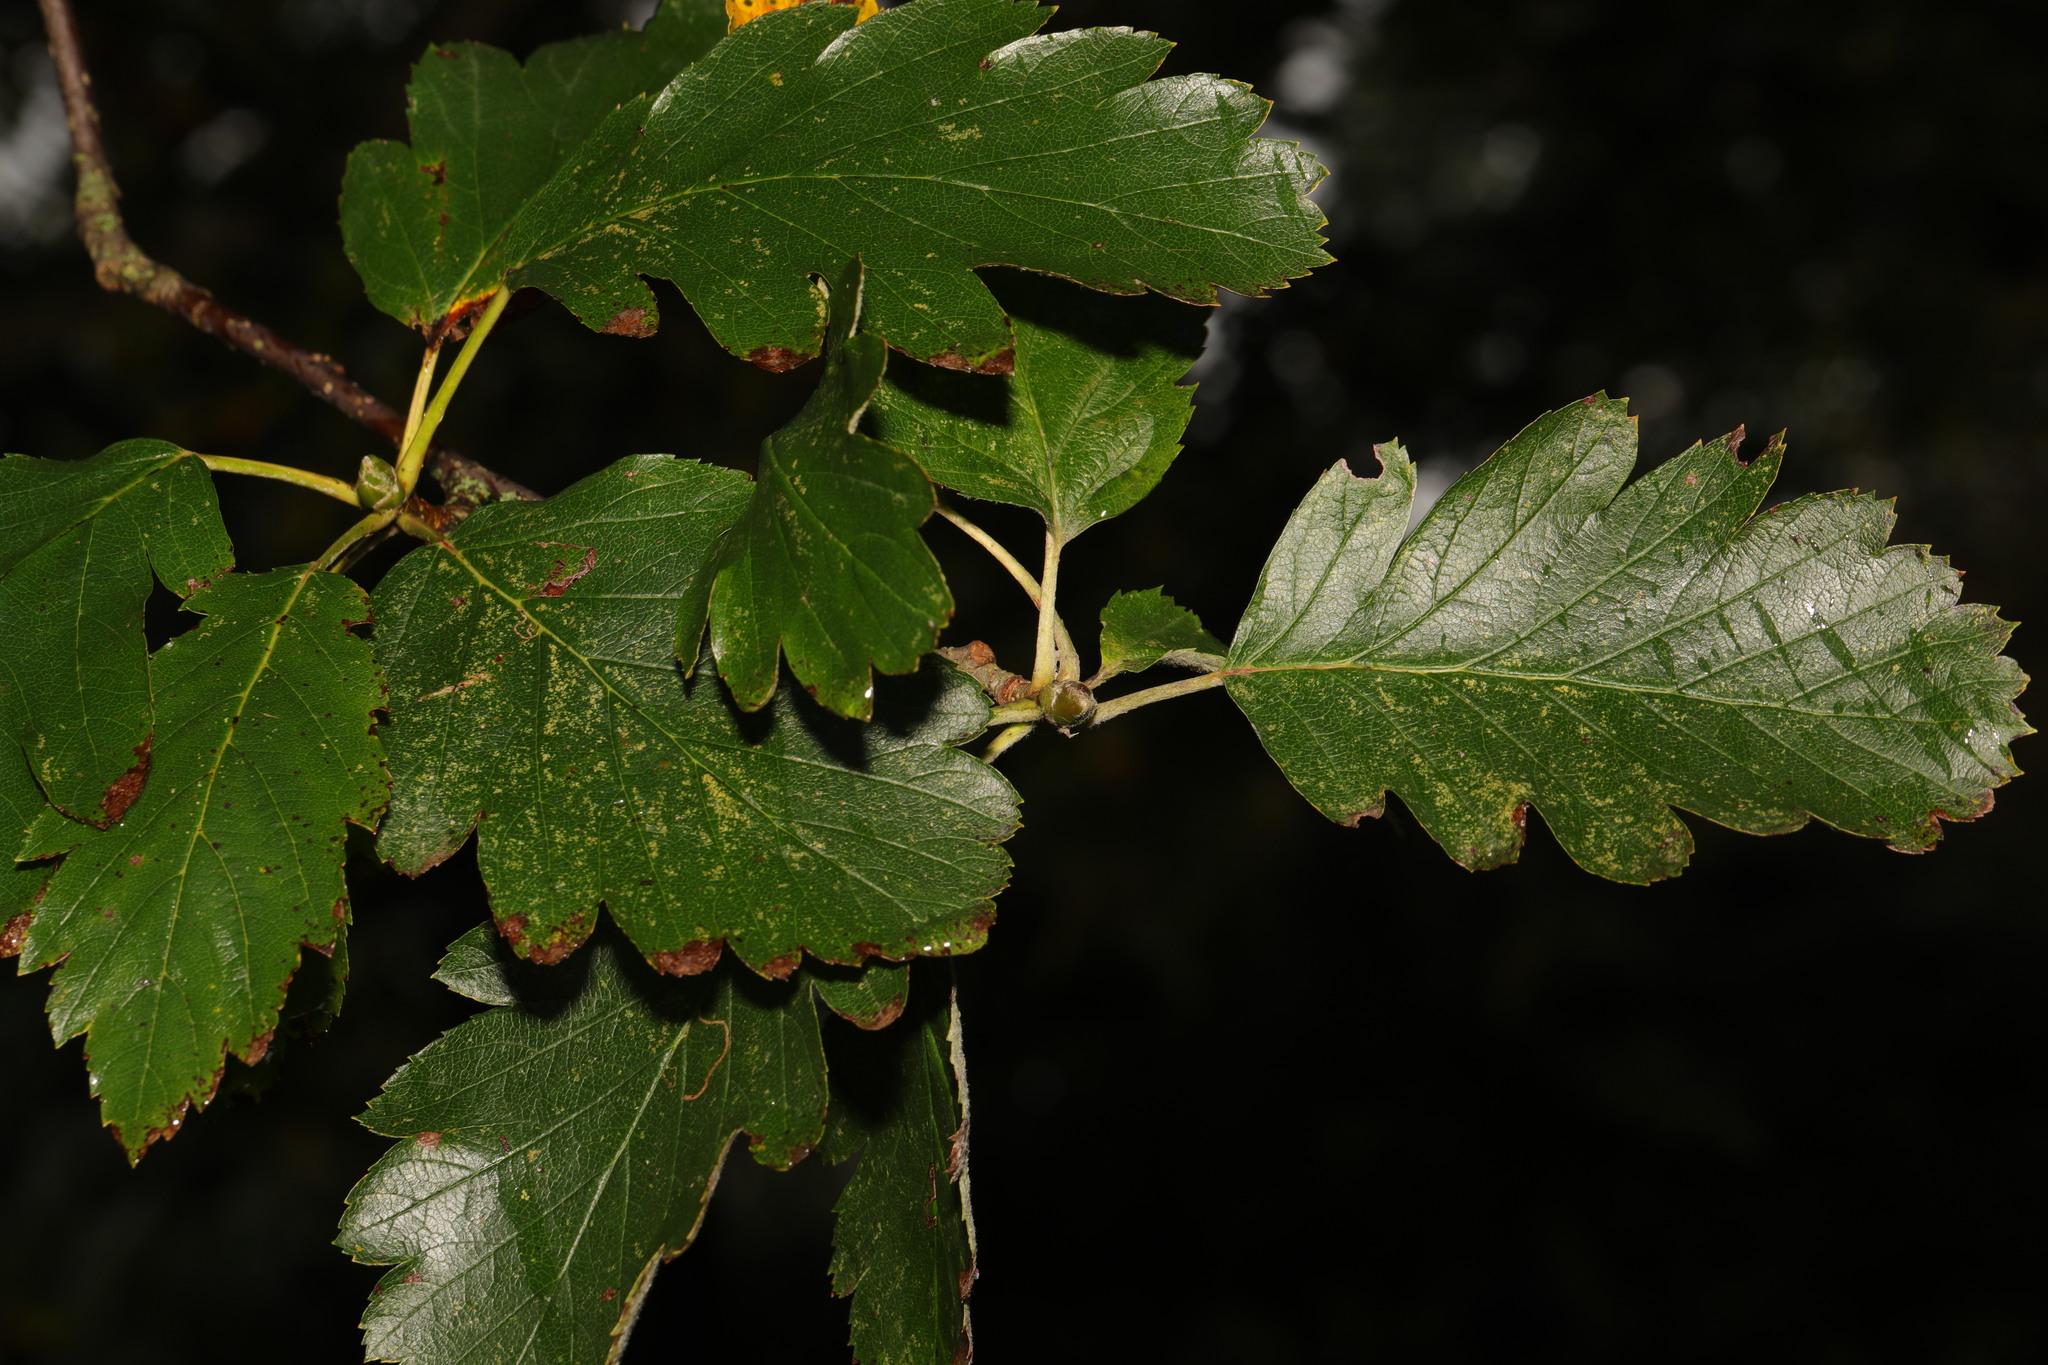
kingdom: Plantae
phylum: Tracheophyta
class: Magnoliopsida
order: Rosales
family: Rosaceae
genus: Scandosorbus
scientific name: Scandosorbus intermedia
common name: Swedish whitebeam
